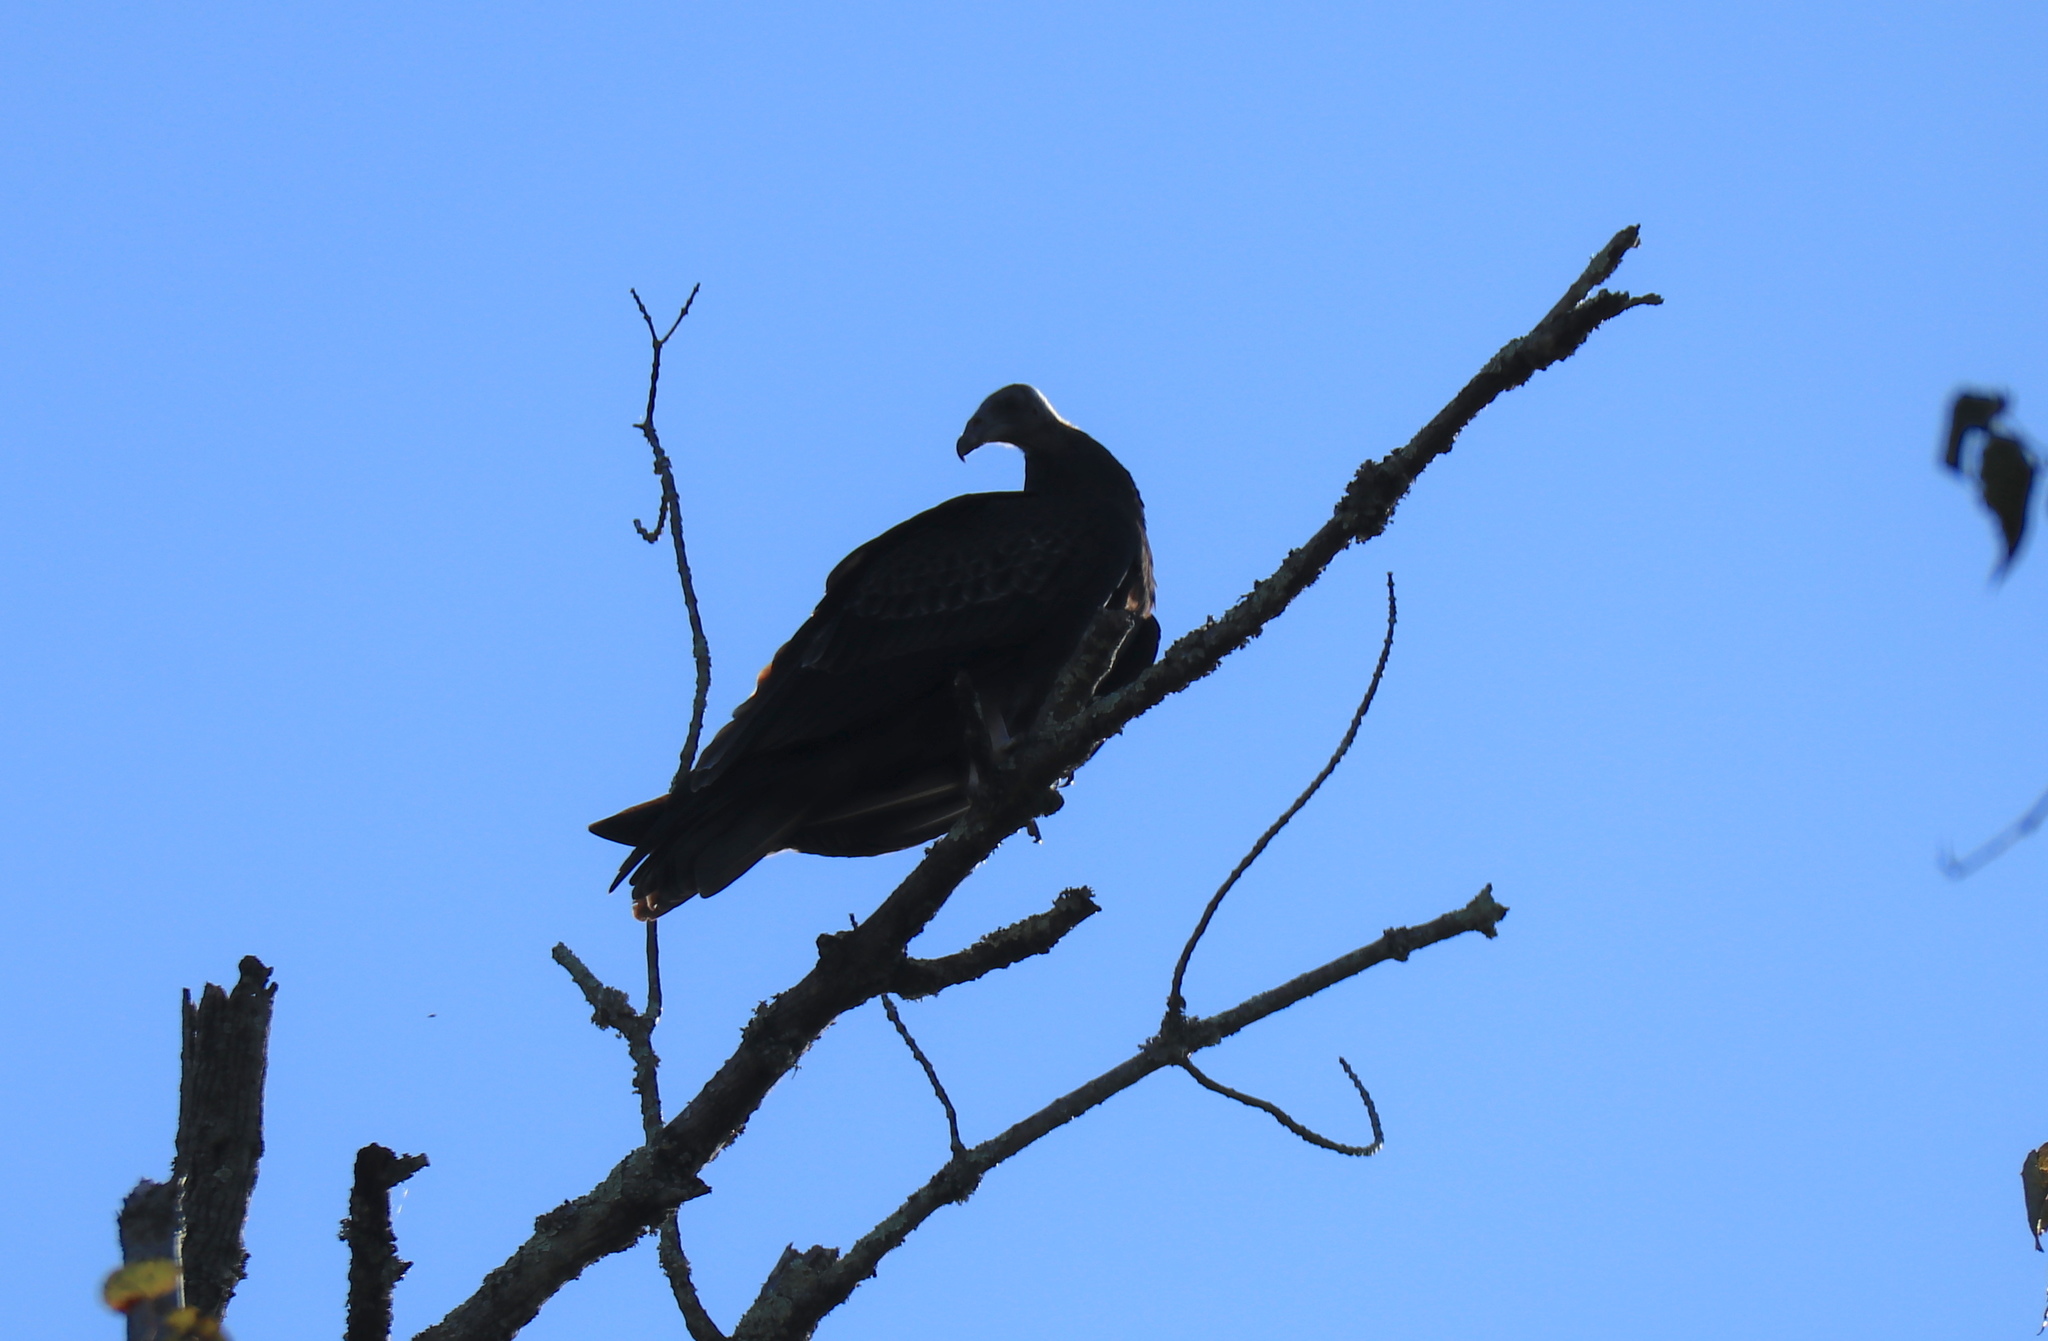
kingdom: Animalia
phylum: Chordata
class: Aves
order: Accipitriformes
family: Cathartidae
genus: Cathartes
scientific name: Cathartes aura
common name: Turkey vulture
